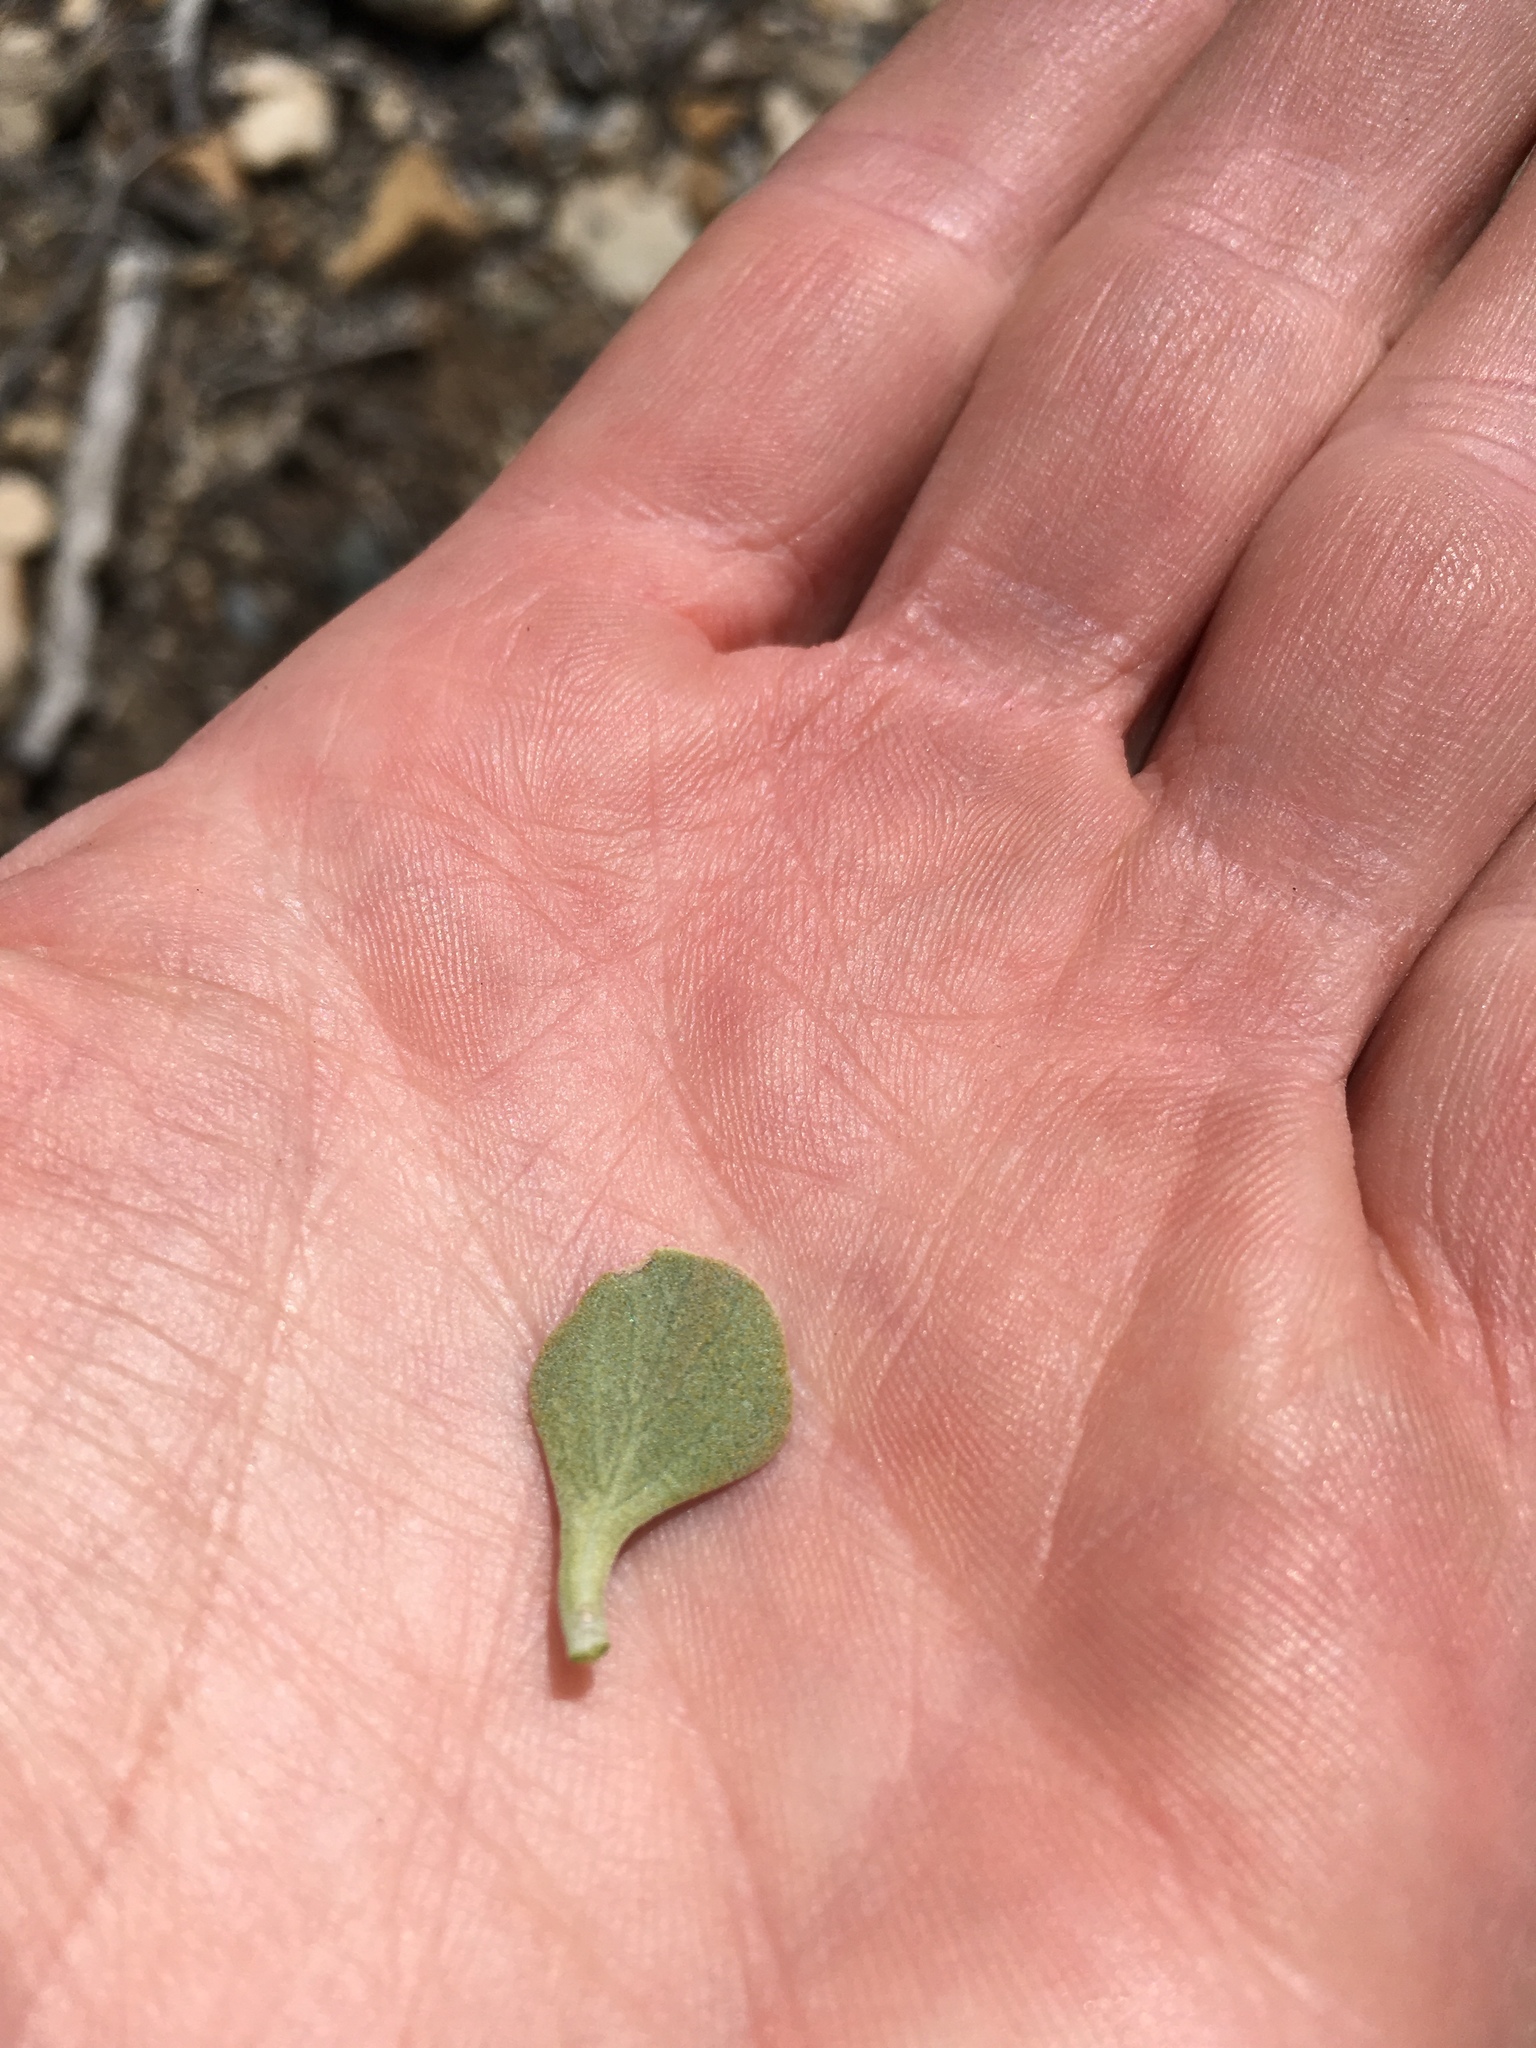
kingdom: Plantae
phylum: Tracheophyta
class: Magnoliopsida
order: Lamiales
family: Lamiaceae
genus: Salvia
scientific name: Salvia dorrii
